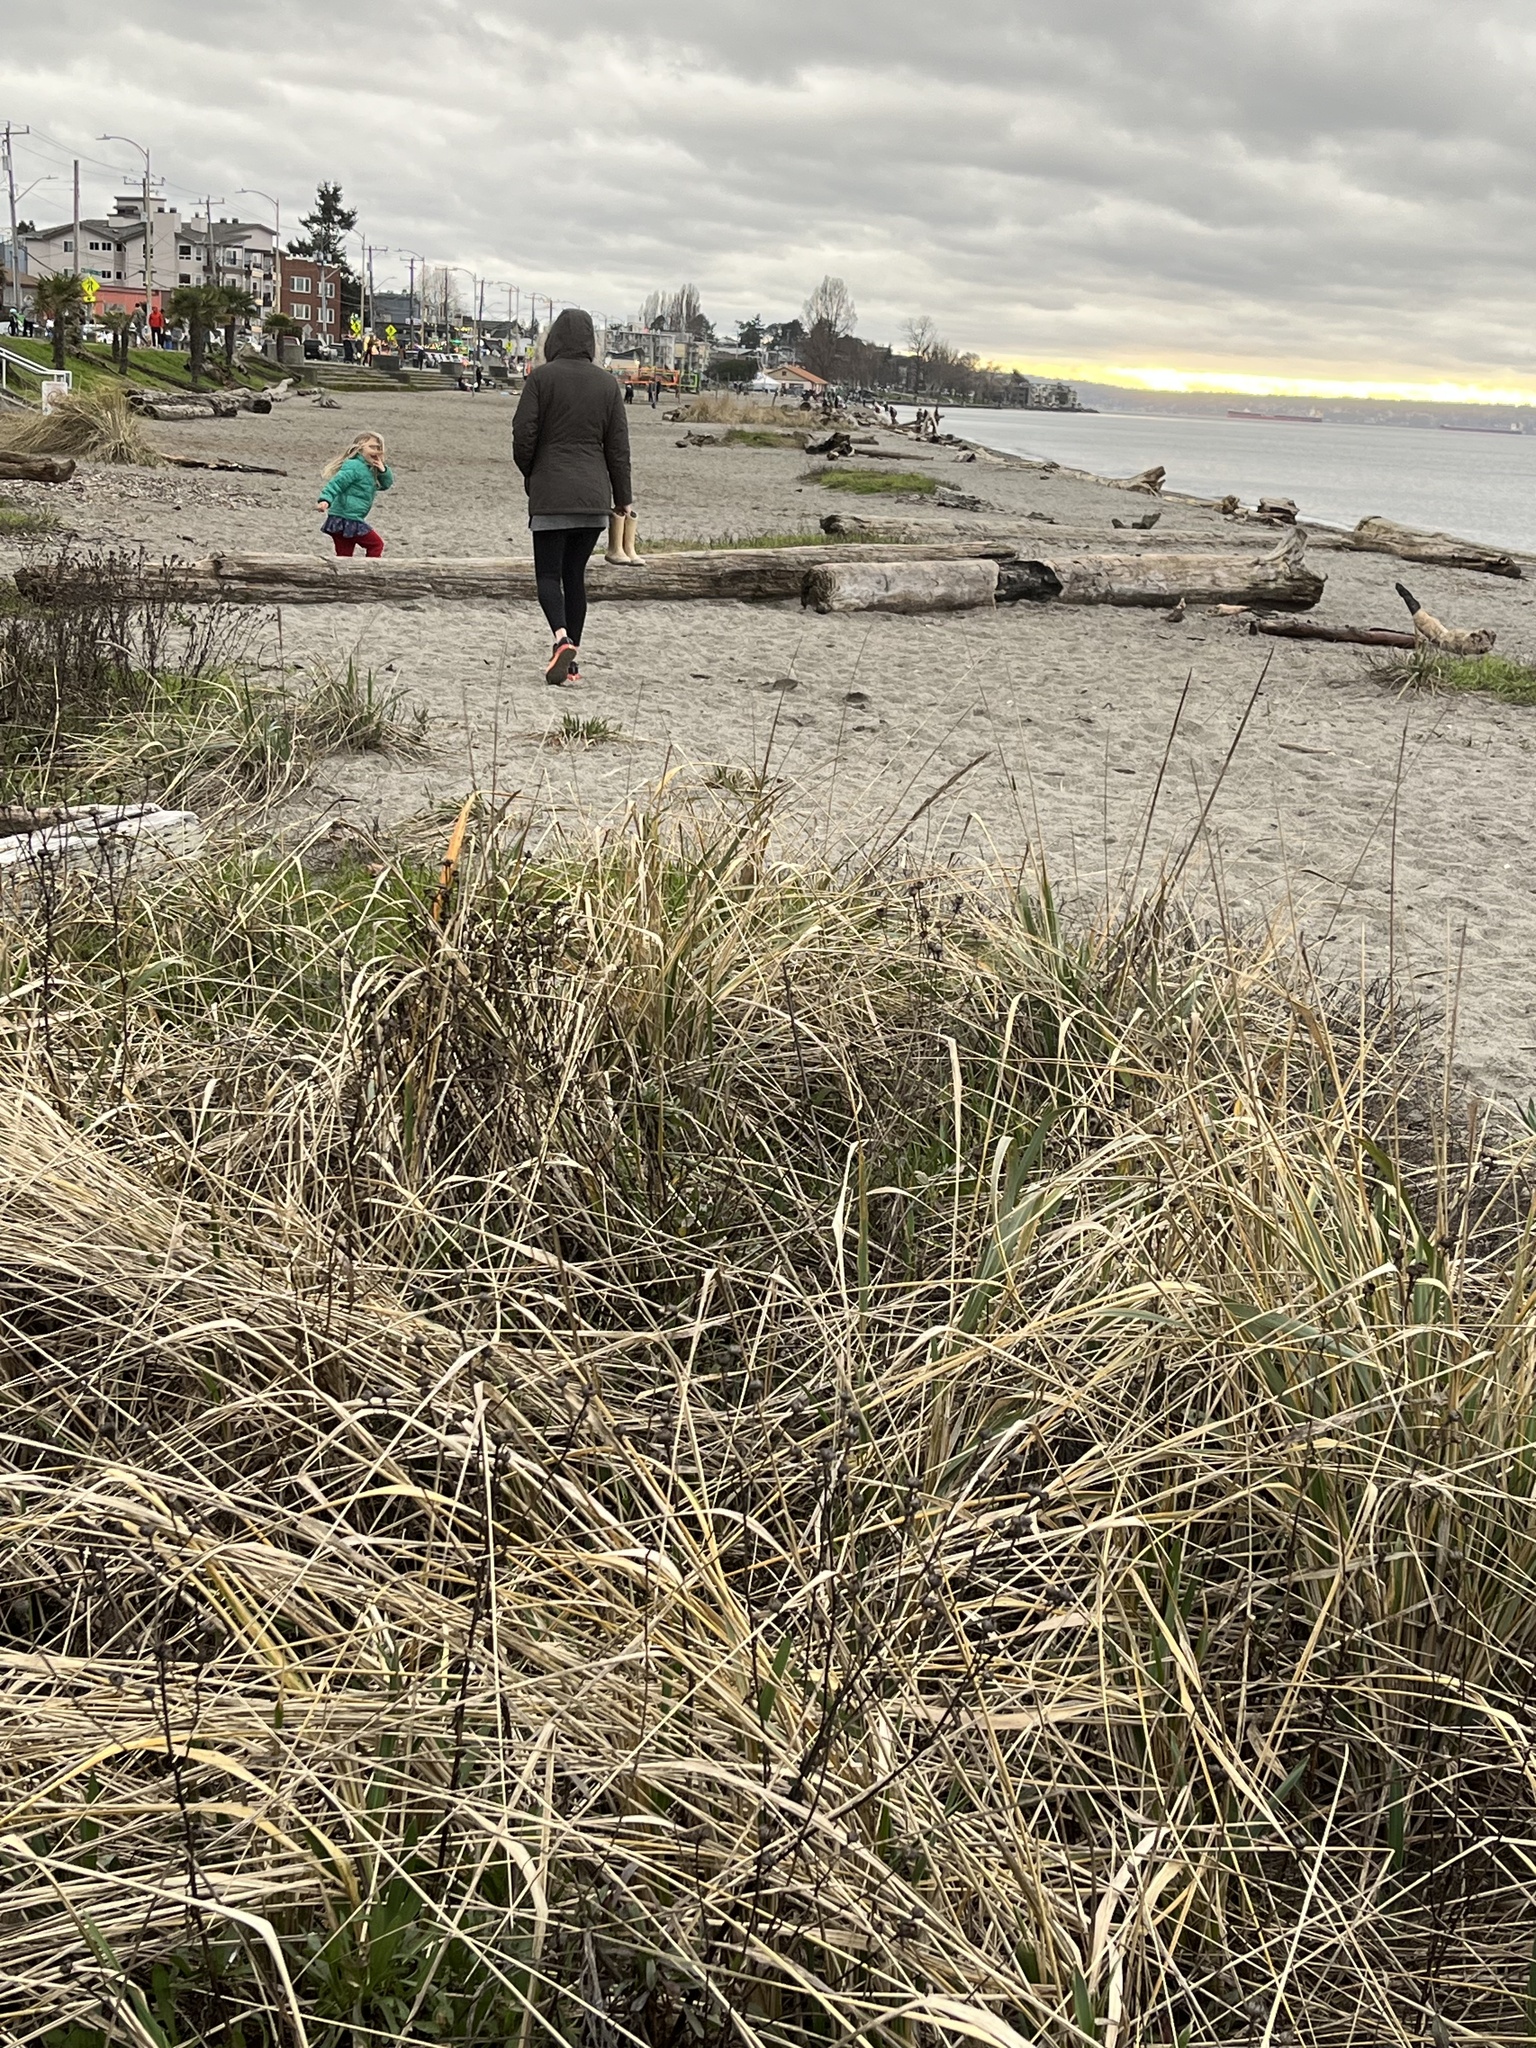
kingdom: Plantae
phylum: Tracheophyta
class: Liliopsida
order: Poales
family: Poaceae
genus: Leymus
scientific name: Leymus mollis
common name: American dune grass
